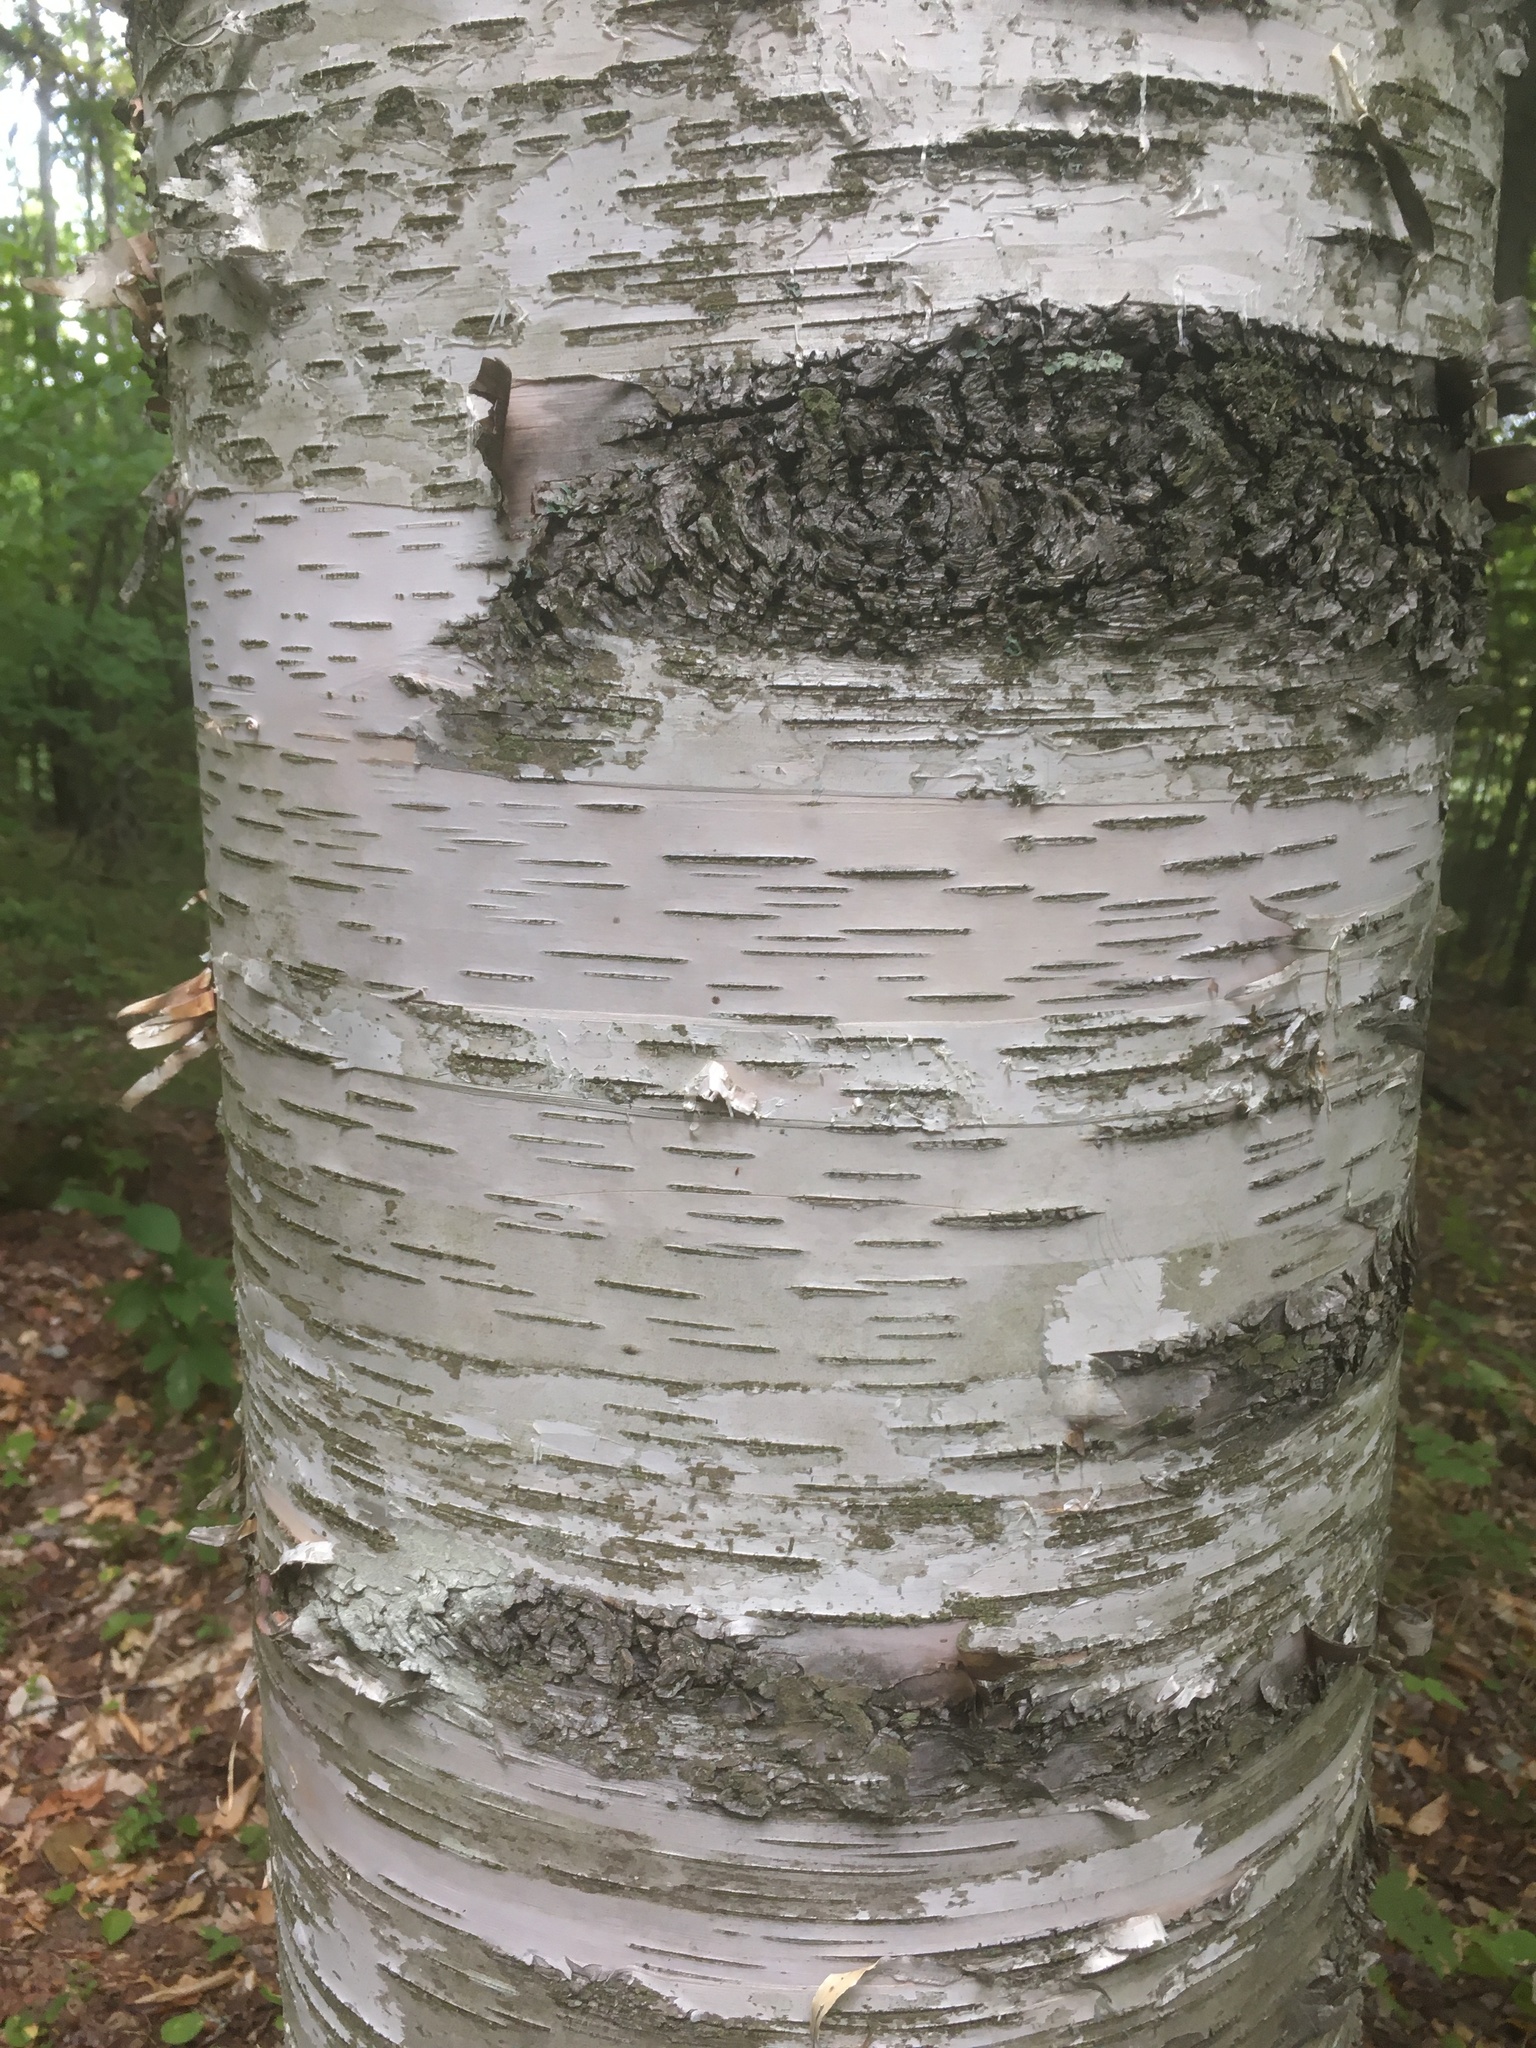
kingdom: Plantae
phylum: Tracheophyta
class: Magnoliopsida
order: Fagales
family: Betulaceae
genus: Betula
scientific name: Betula papyrifera
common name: Paper birch
